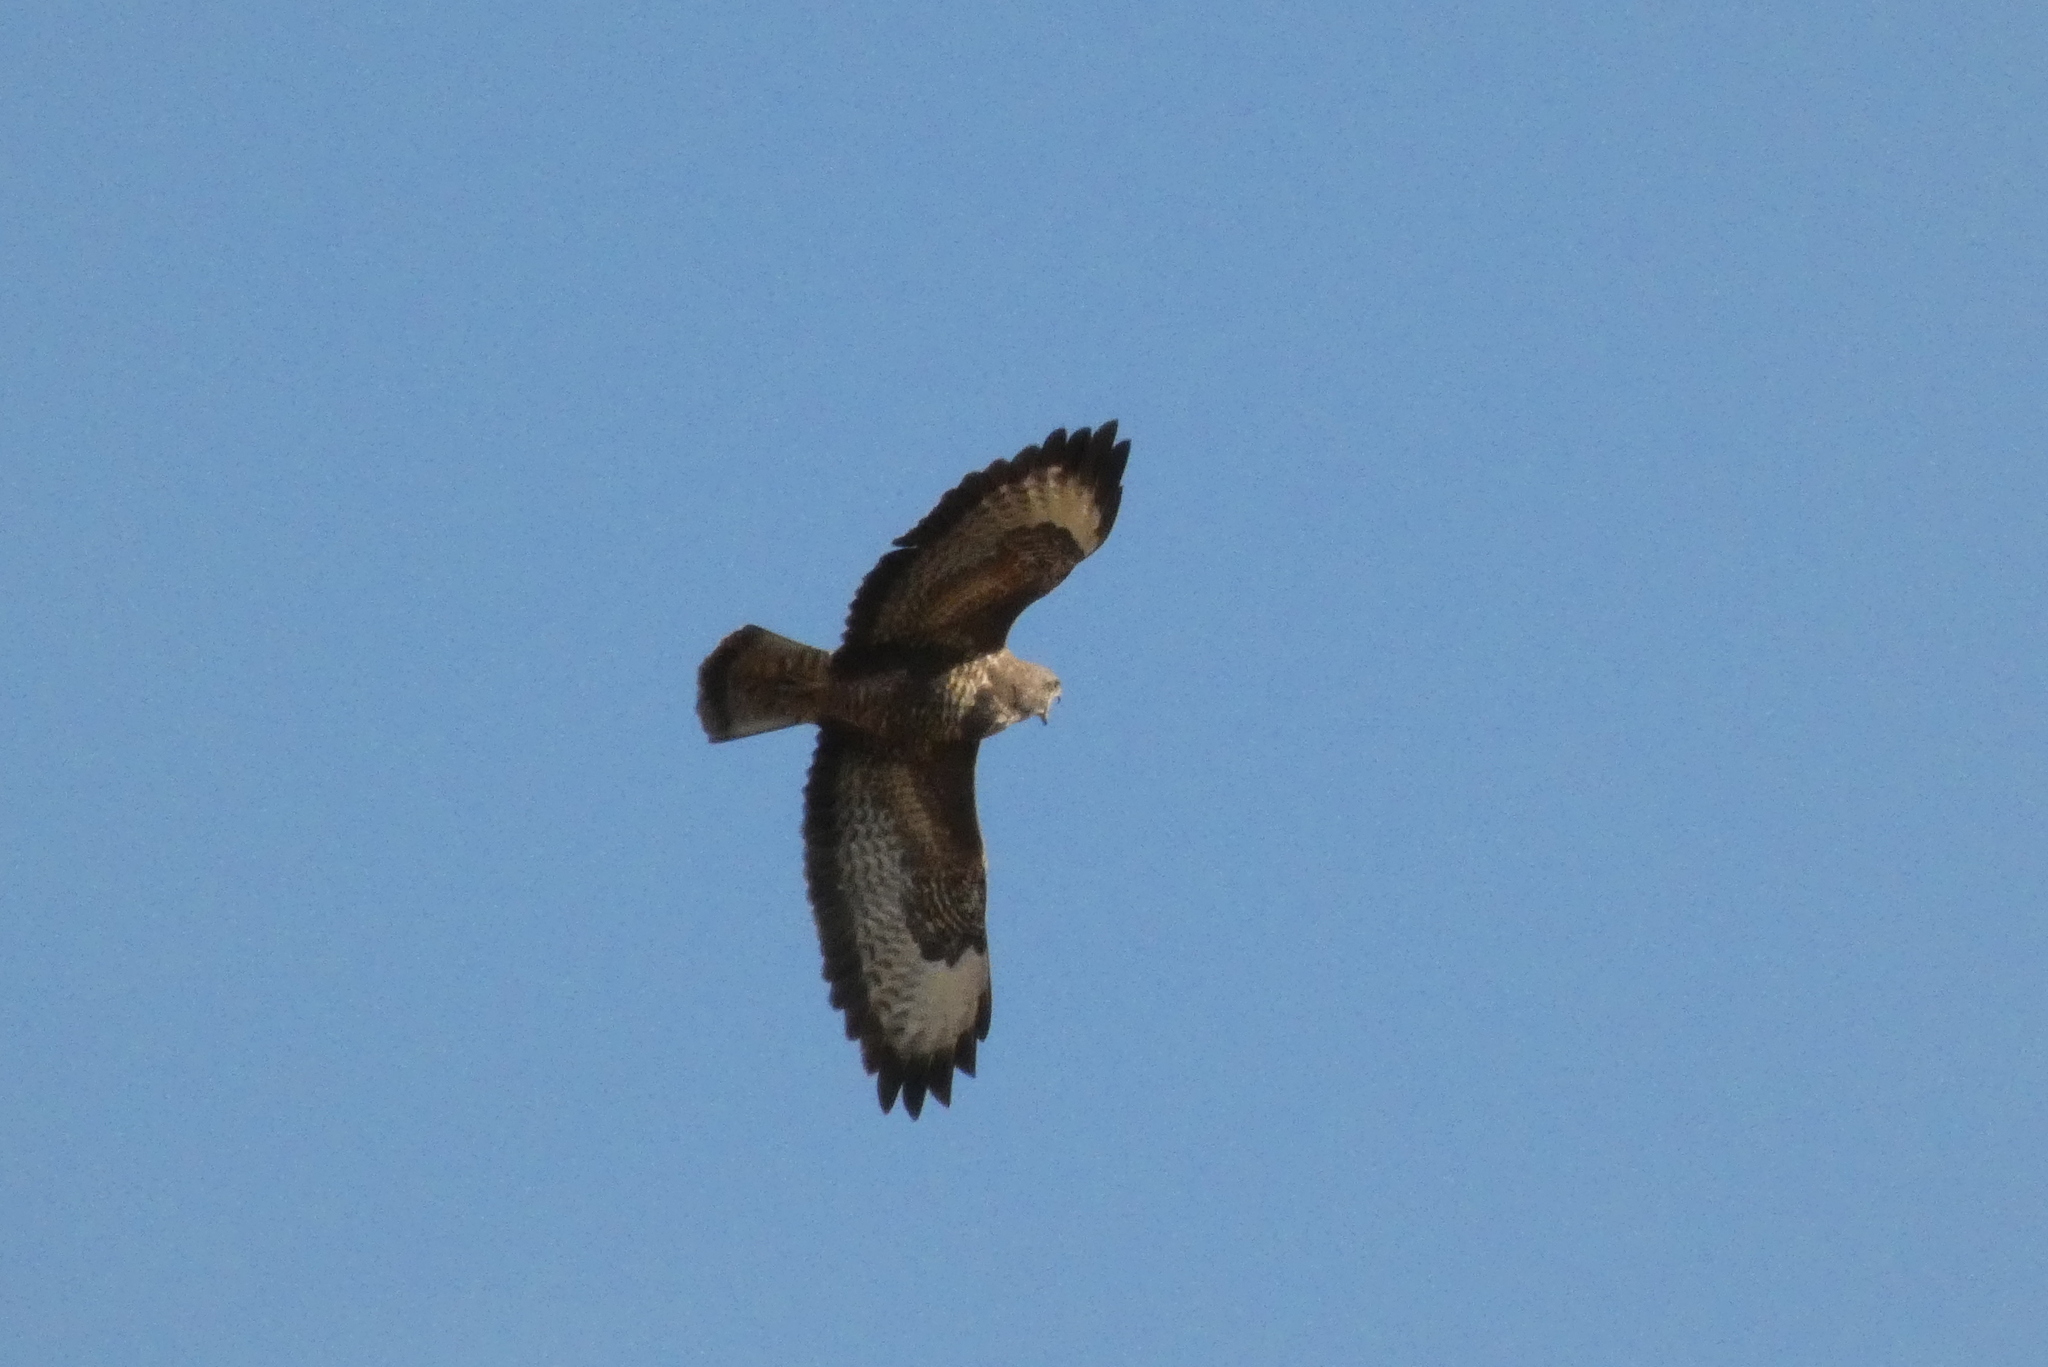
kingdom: Animalia
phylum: Chordata
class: Aves
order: Accipitriformes
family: Accipitridae
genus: Buteo
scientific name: Buteo buteo
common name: Common buzzard
